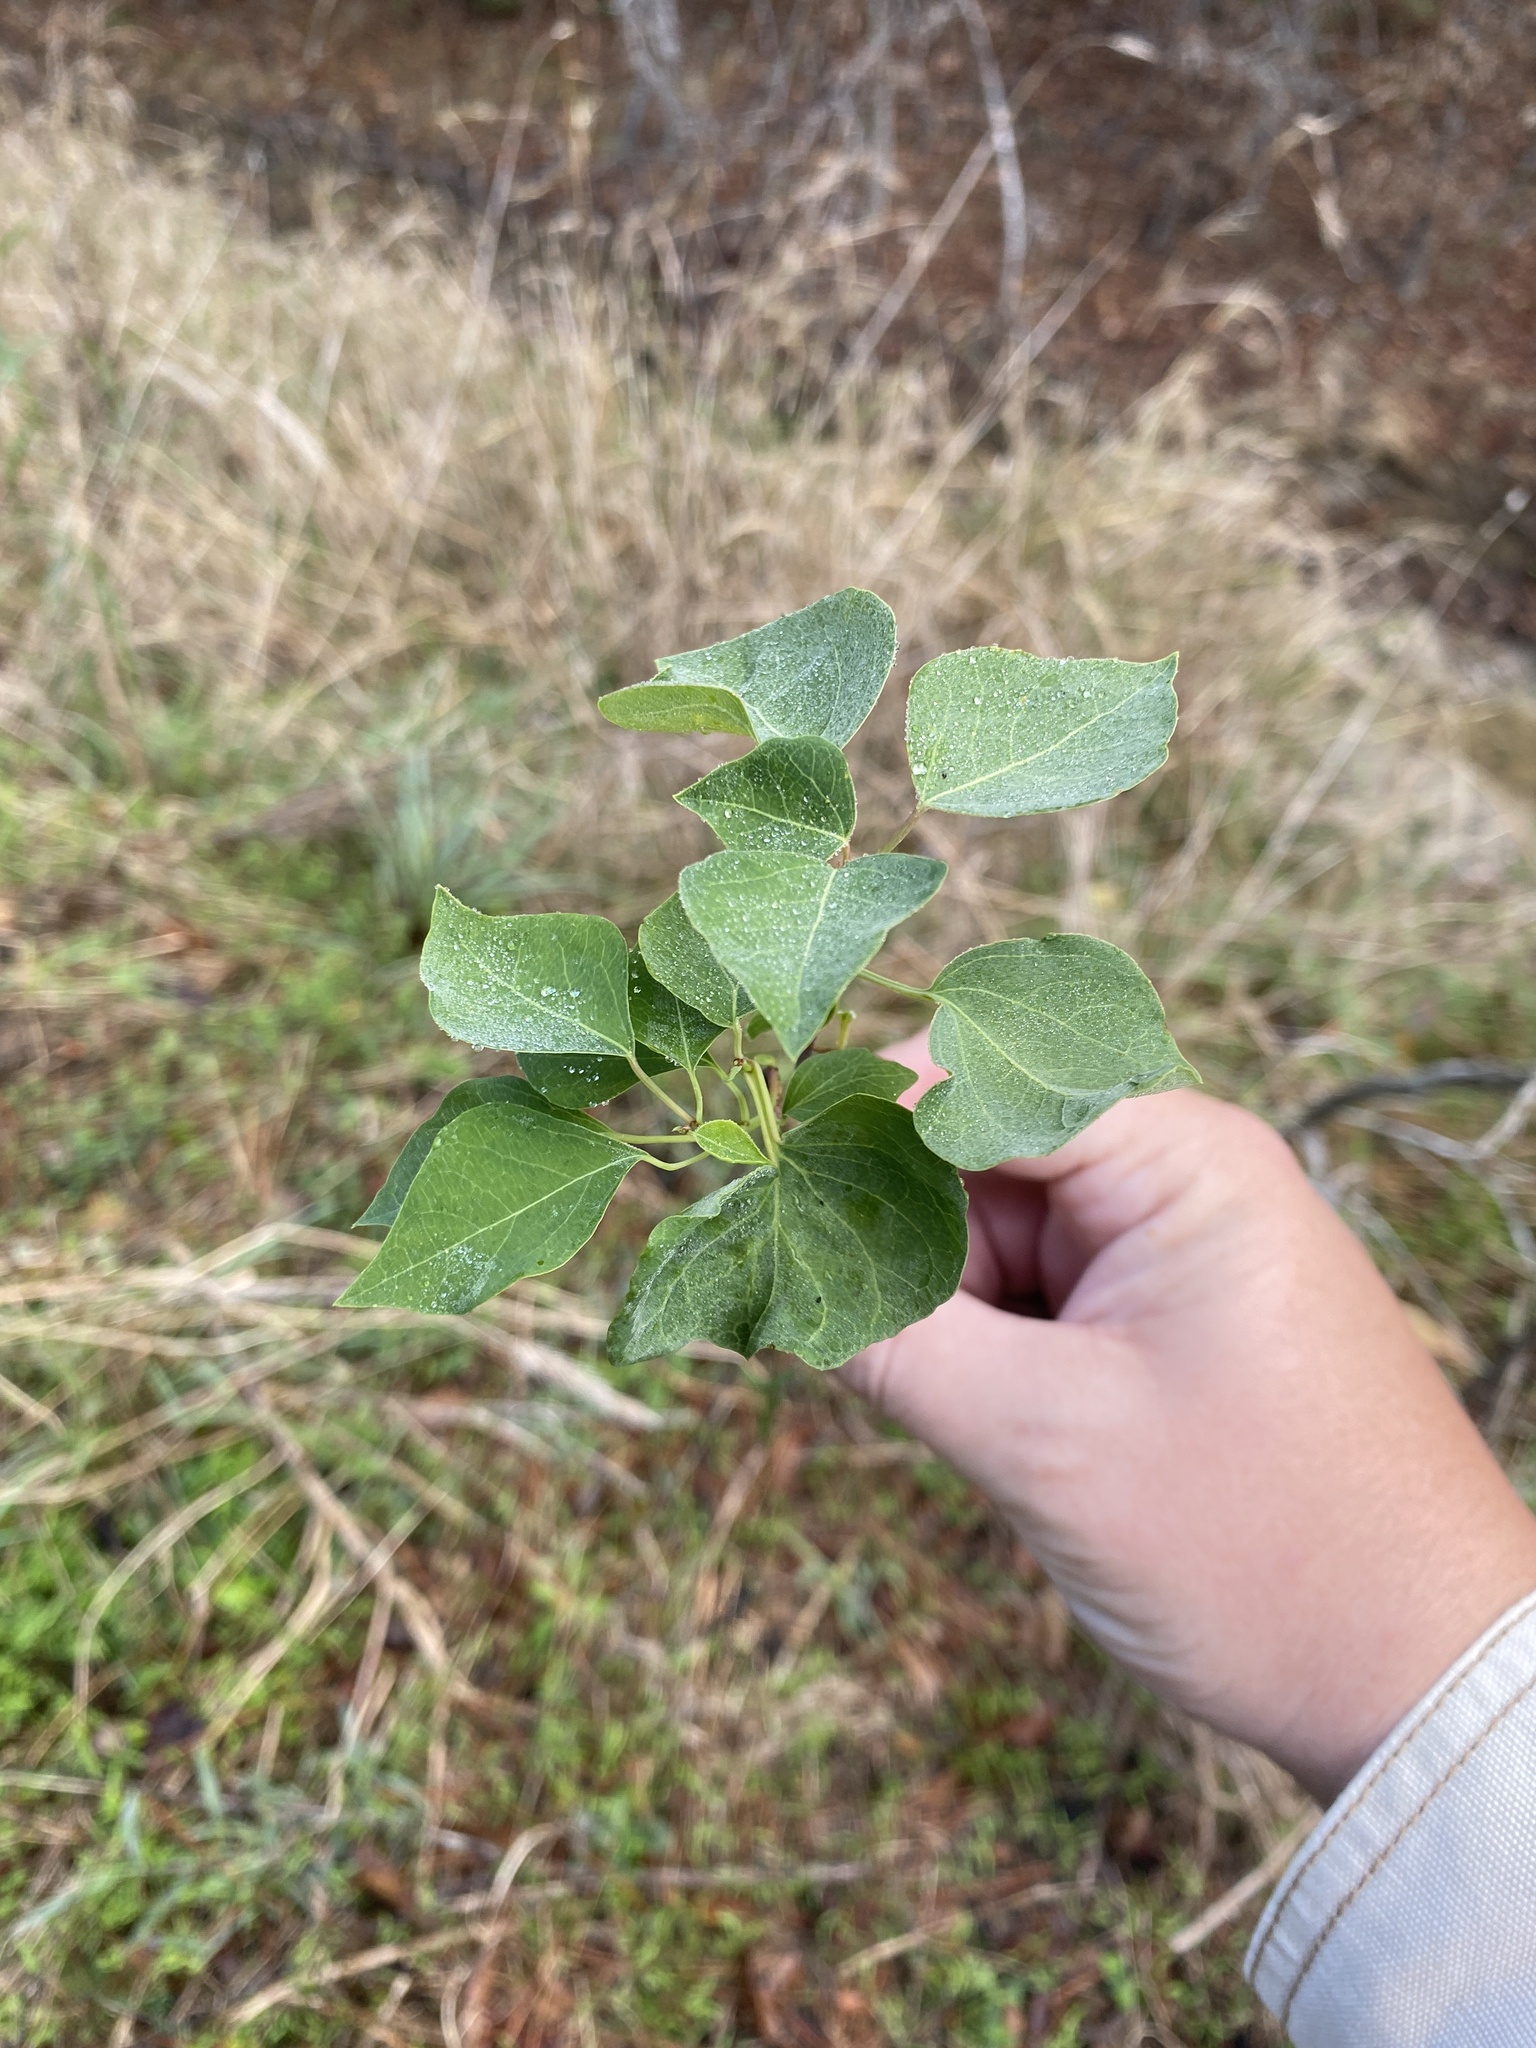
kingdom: Plantae
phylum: Tracheophyta
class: Magnoliopsida
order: Malpighiales
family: Euphorbiaceae
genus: Triadica
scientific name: Triadica sebifera
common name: Chinese tallow
